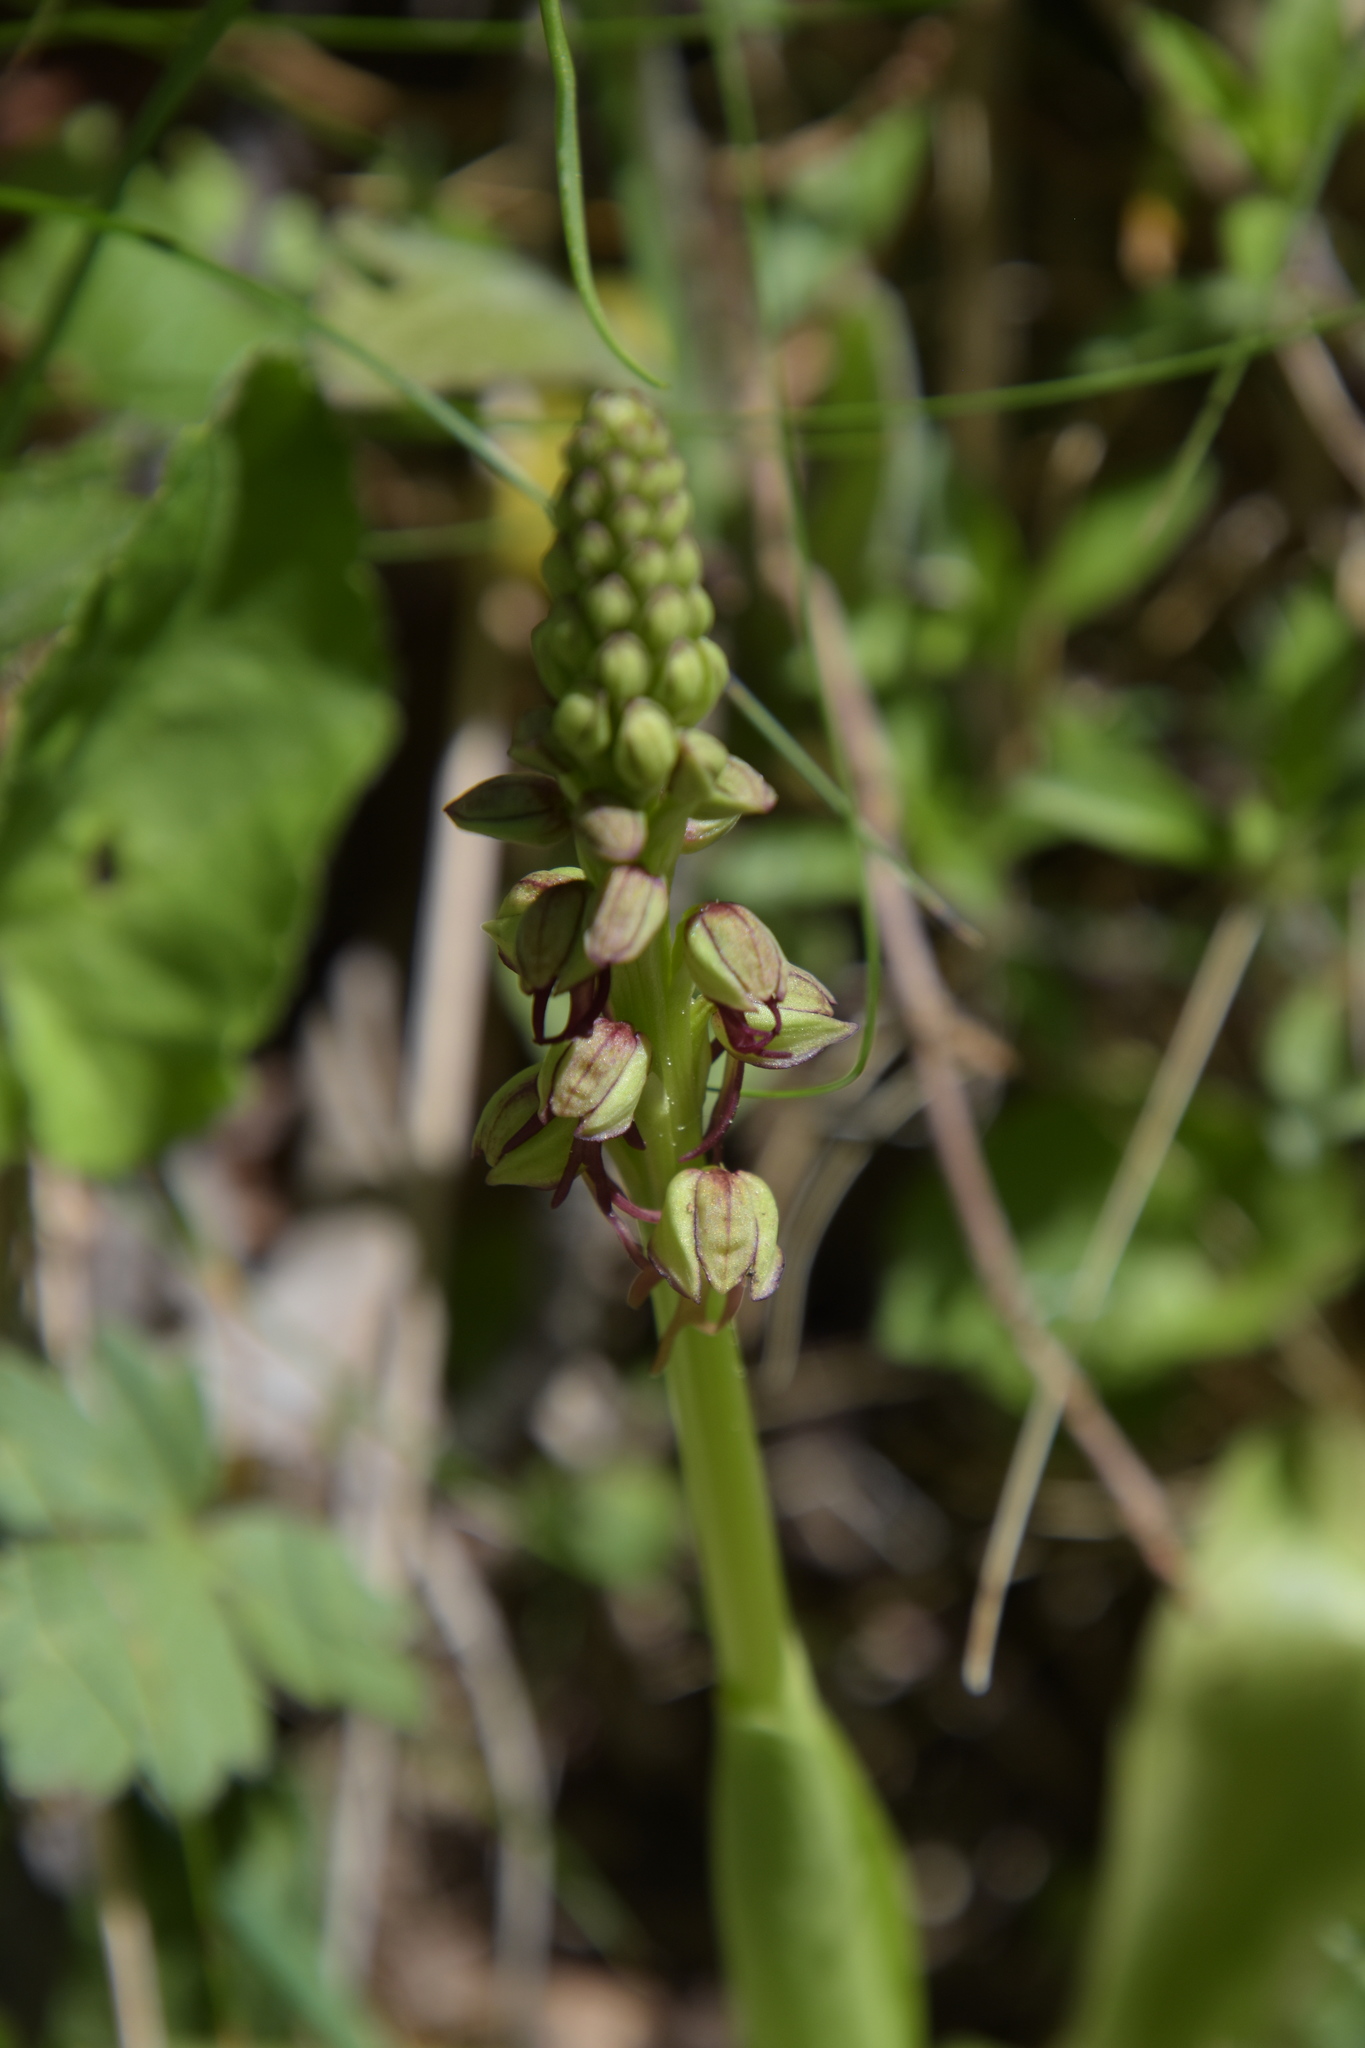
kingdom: Plantae
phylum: Tracheophyta
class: Liliopsida
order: Asparagales
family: Orchidaceae
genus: Orchis
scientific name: Orchis anthropophora
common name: Man orchid
